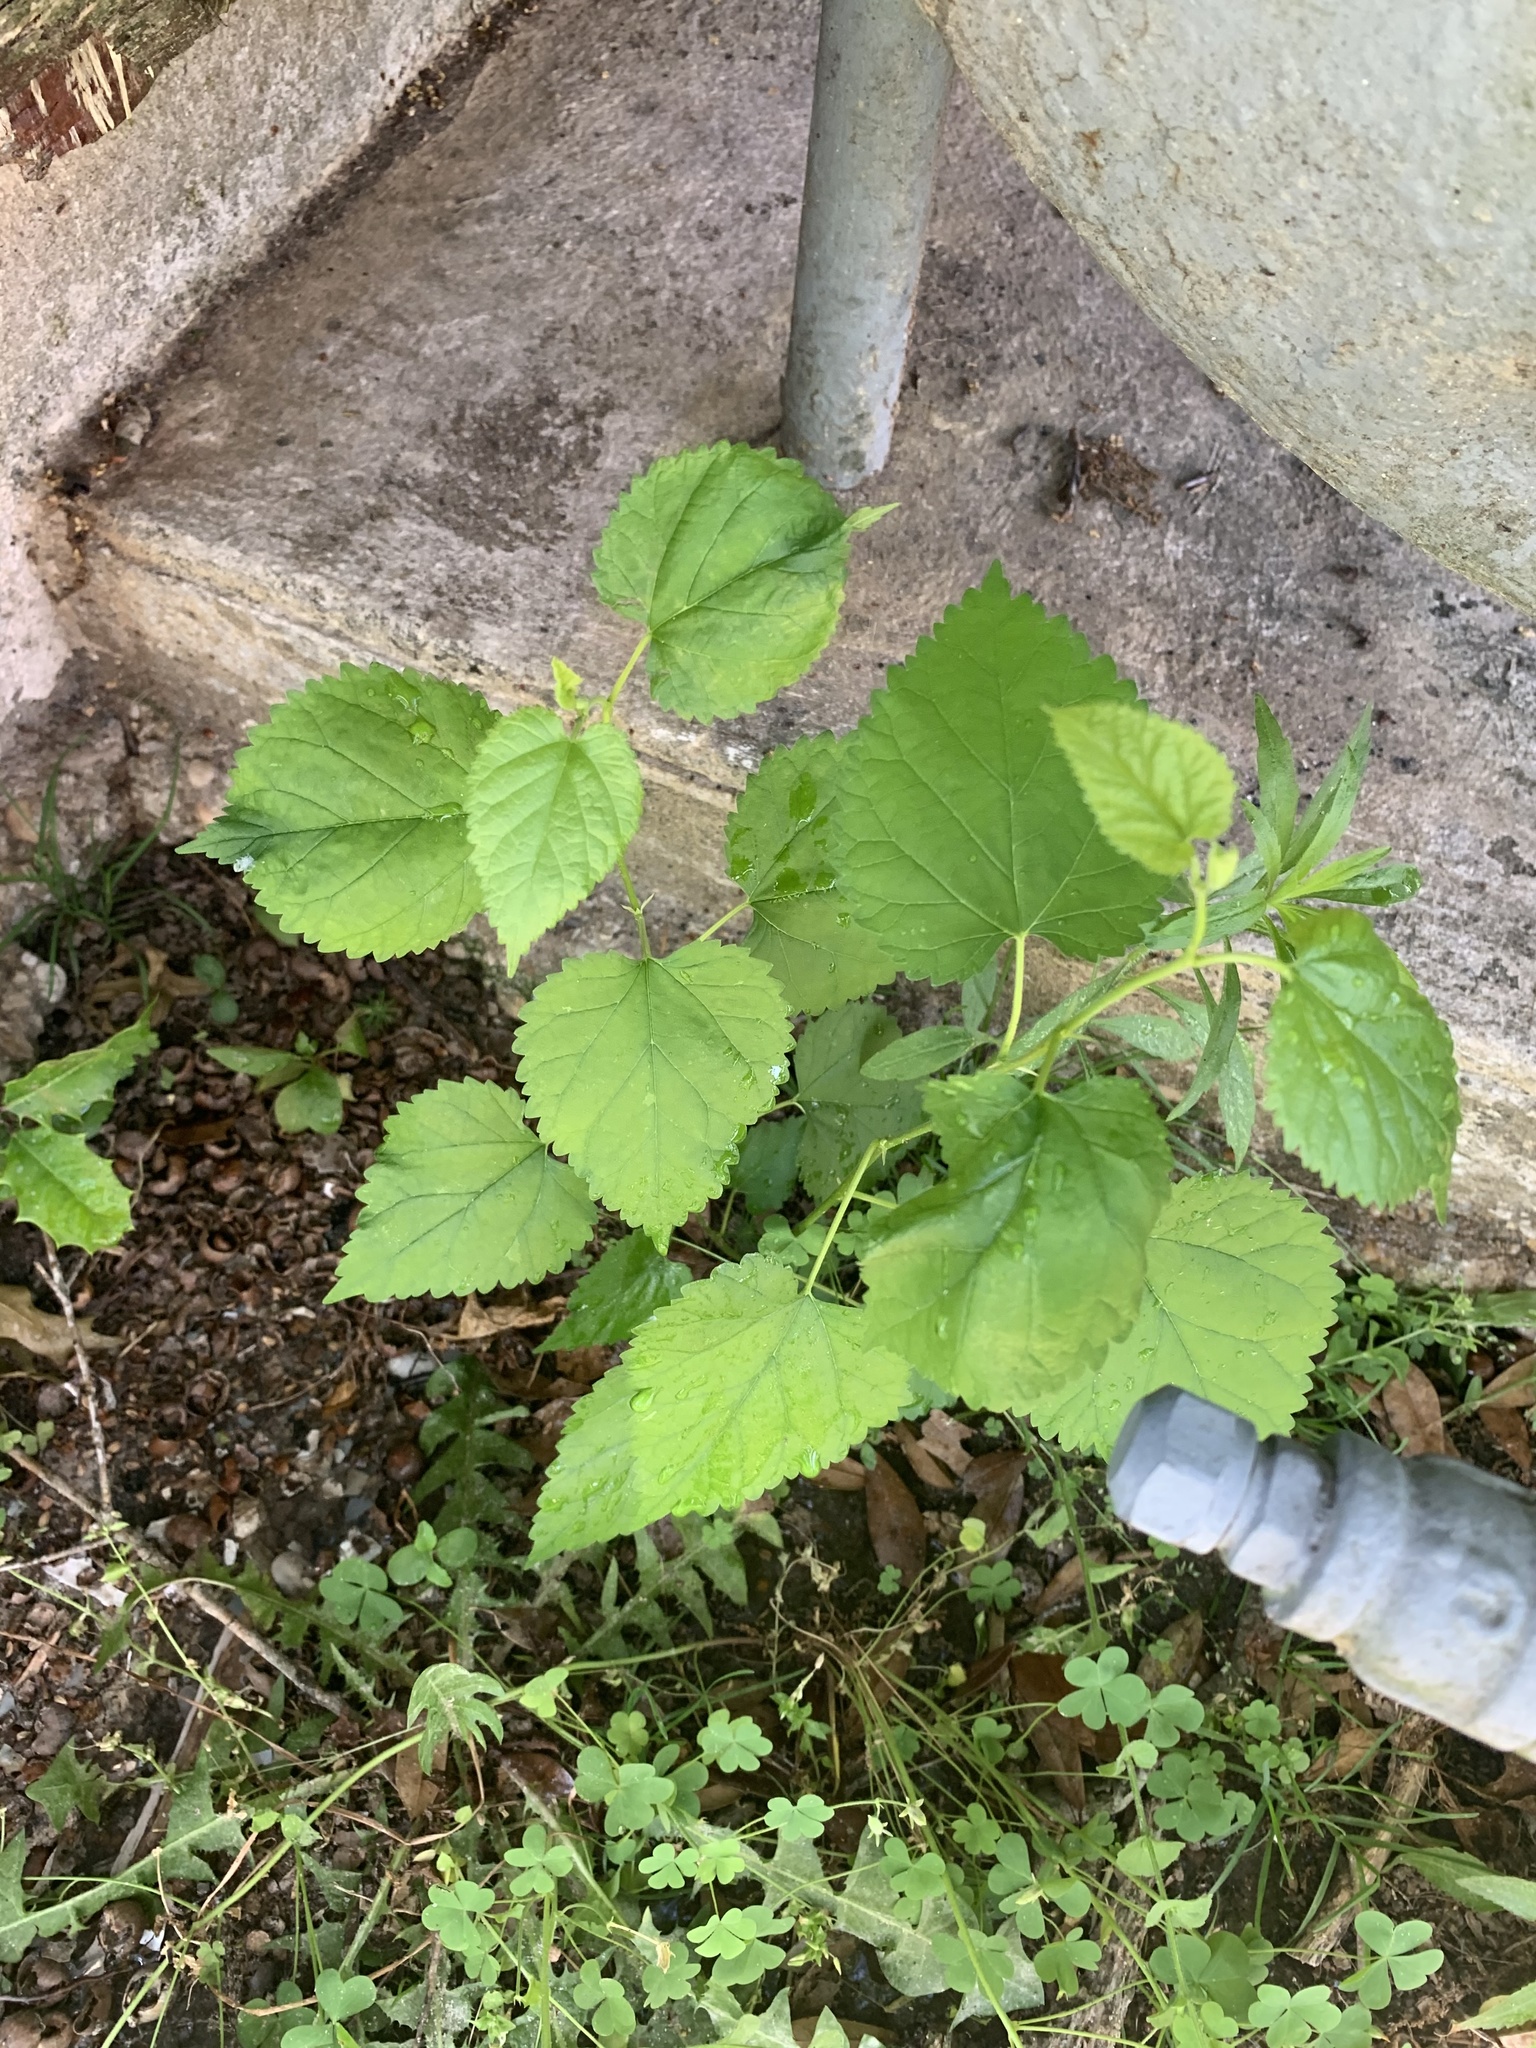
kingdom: Plantae
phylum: Tracheophyta
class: Magnoliopsida
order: Rosales
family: Moraceae
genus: Fatoua
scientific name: Fatoua villosa
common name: Hairy crabweed
